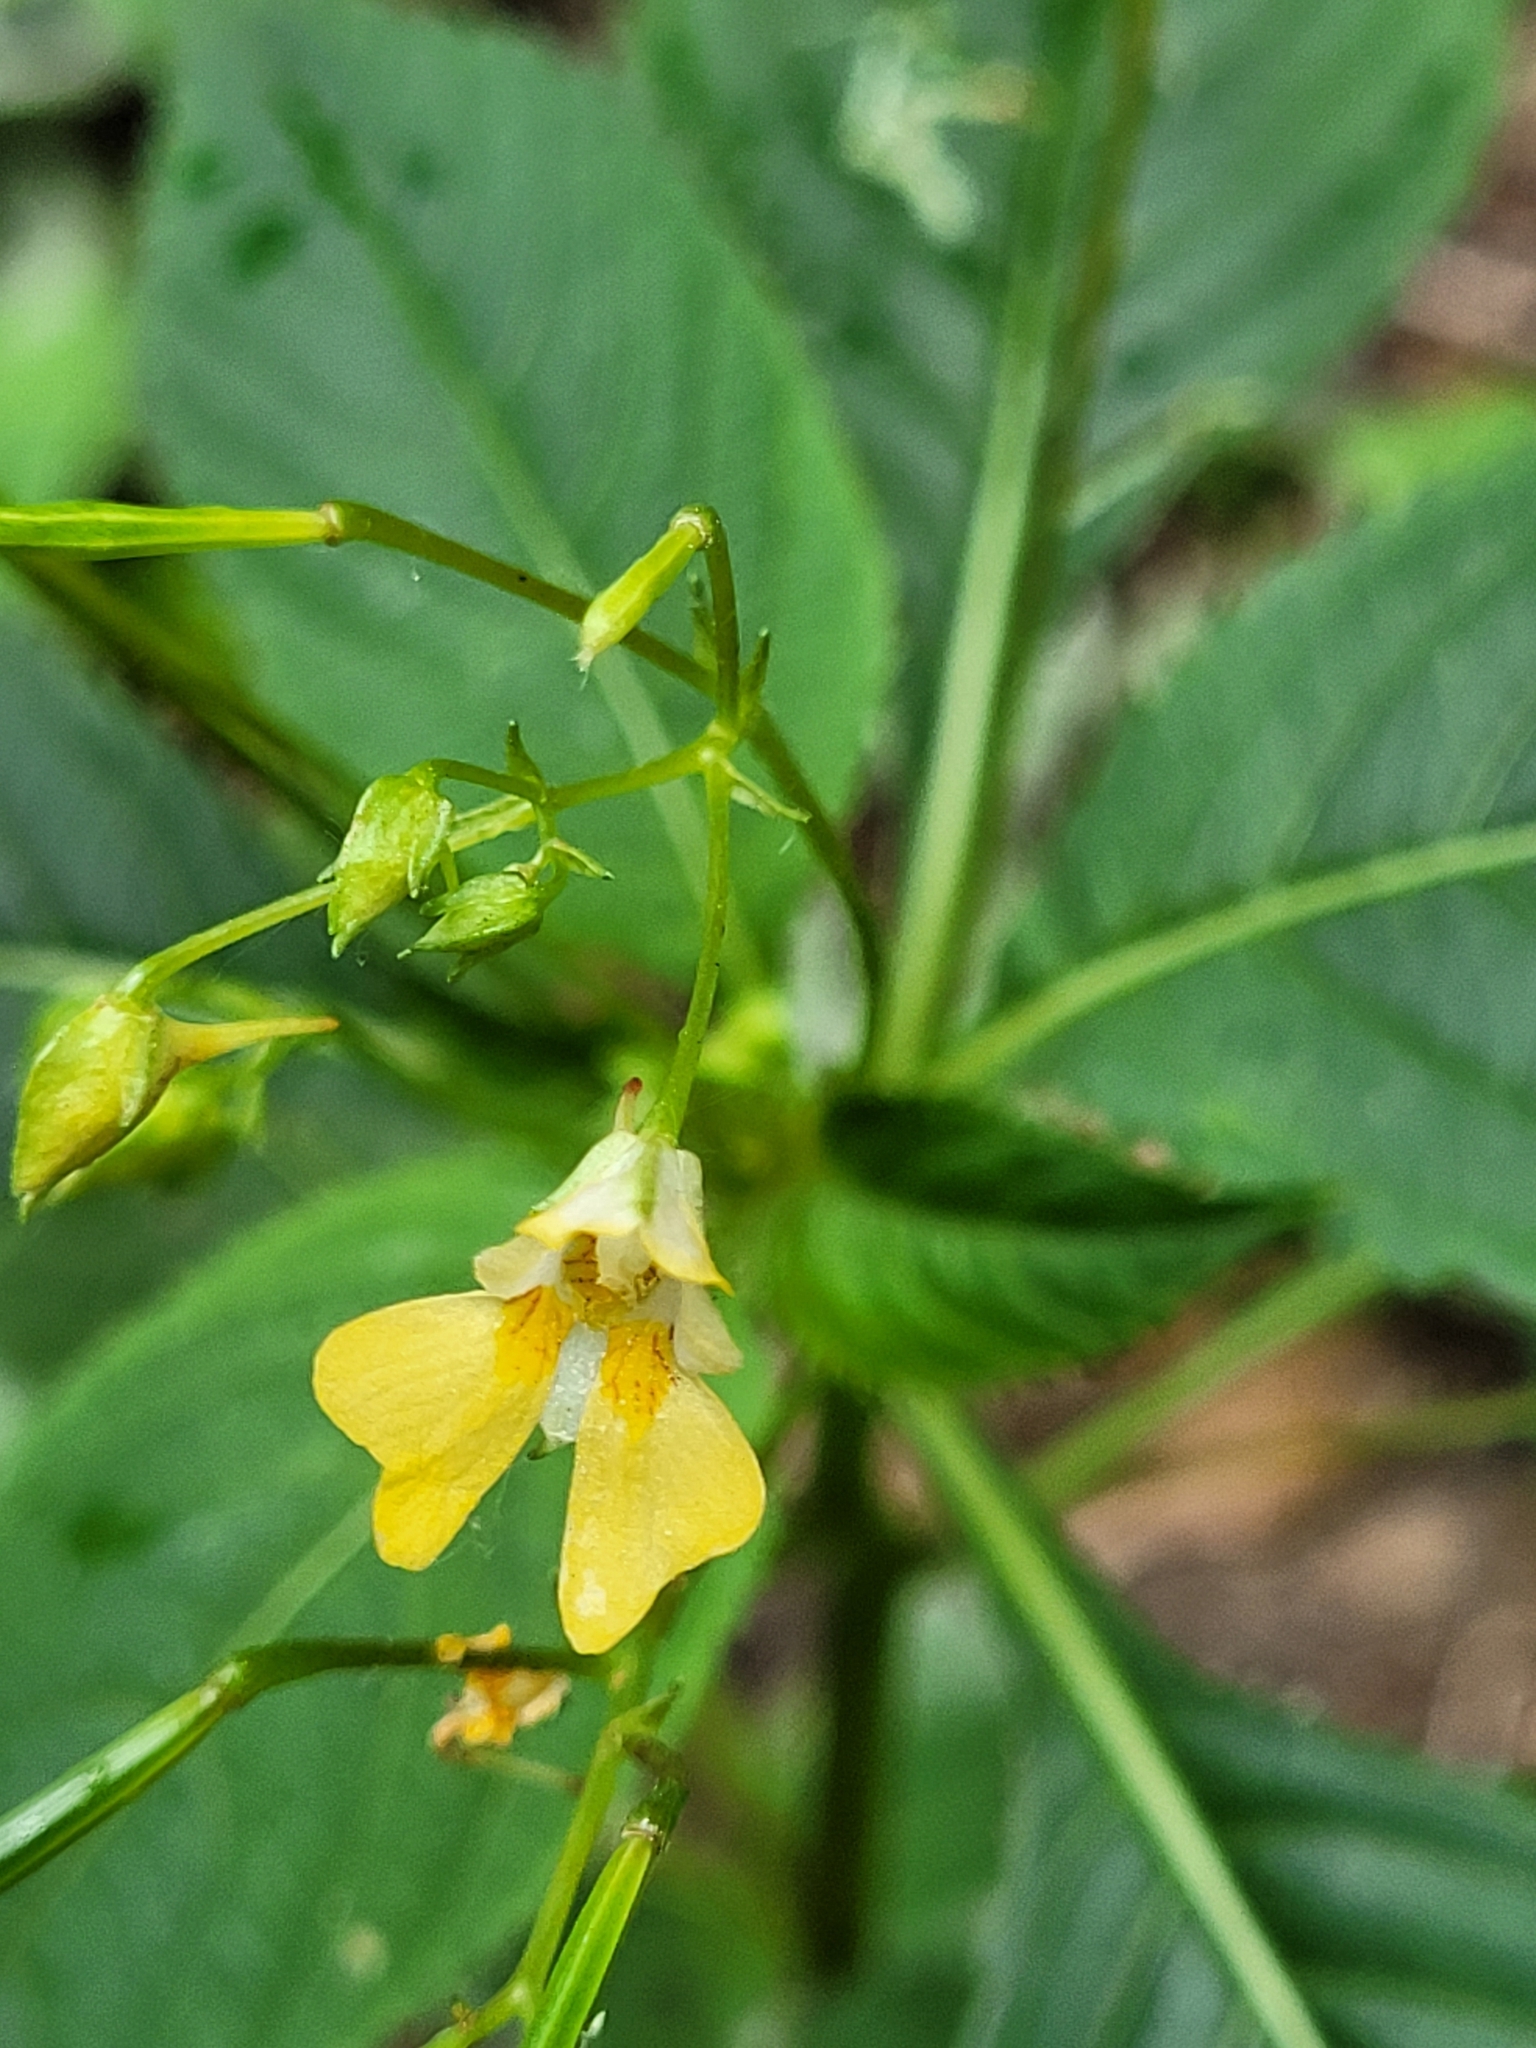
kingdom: Plantae
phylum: Tracheophyta
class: Magnoliopsida
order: Ericales
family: Balsaminaceae
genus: Impatiens
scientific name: Impatiens parviflora
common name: Small balsam
